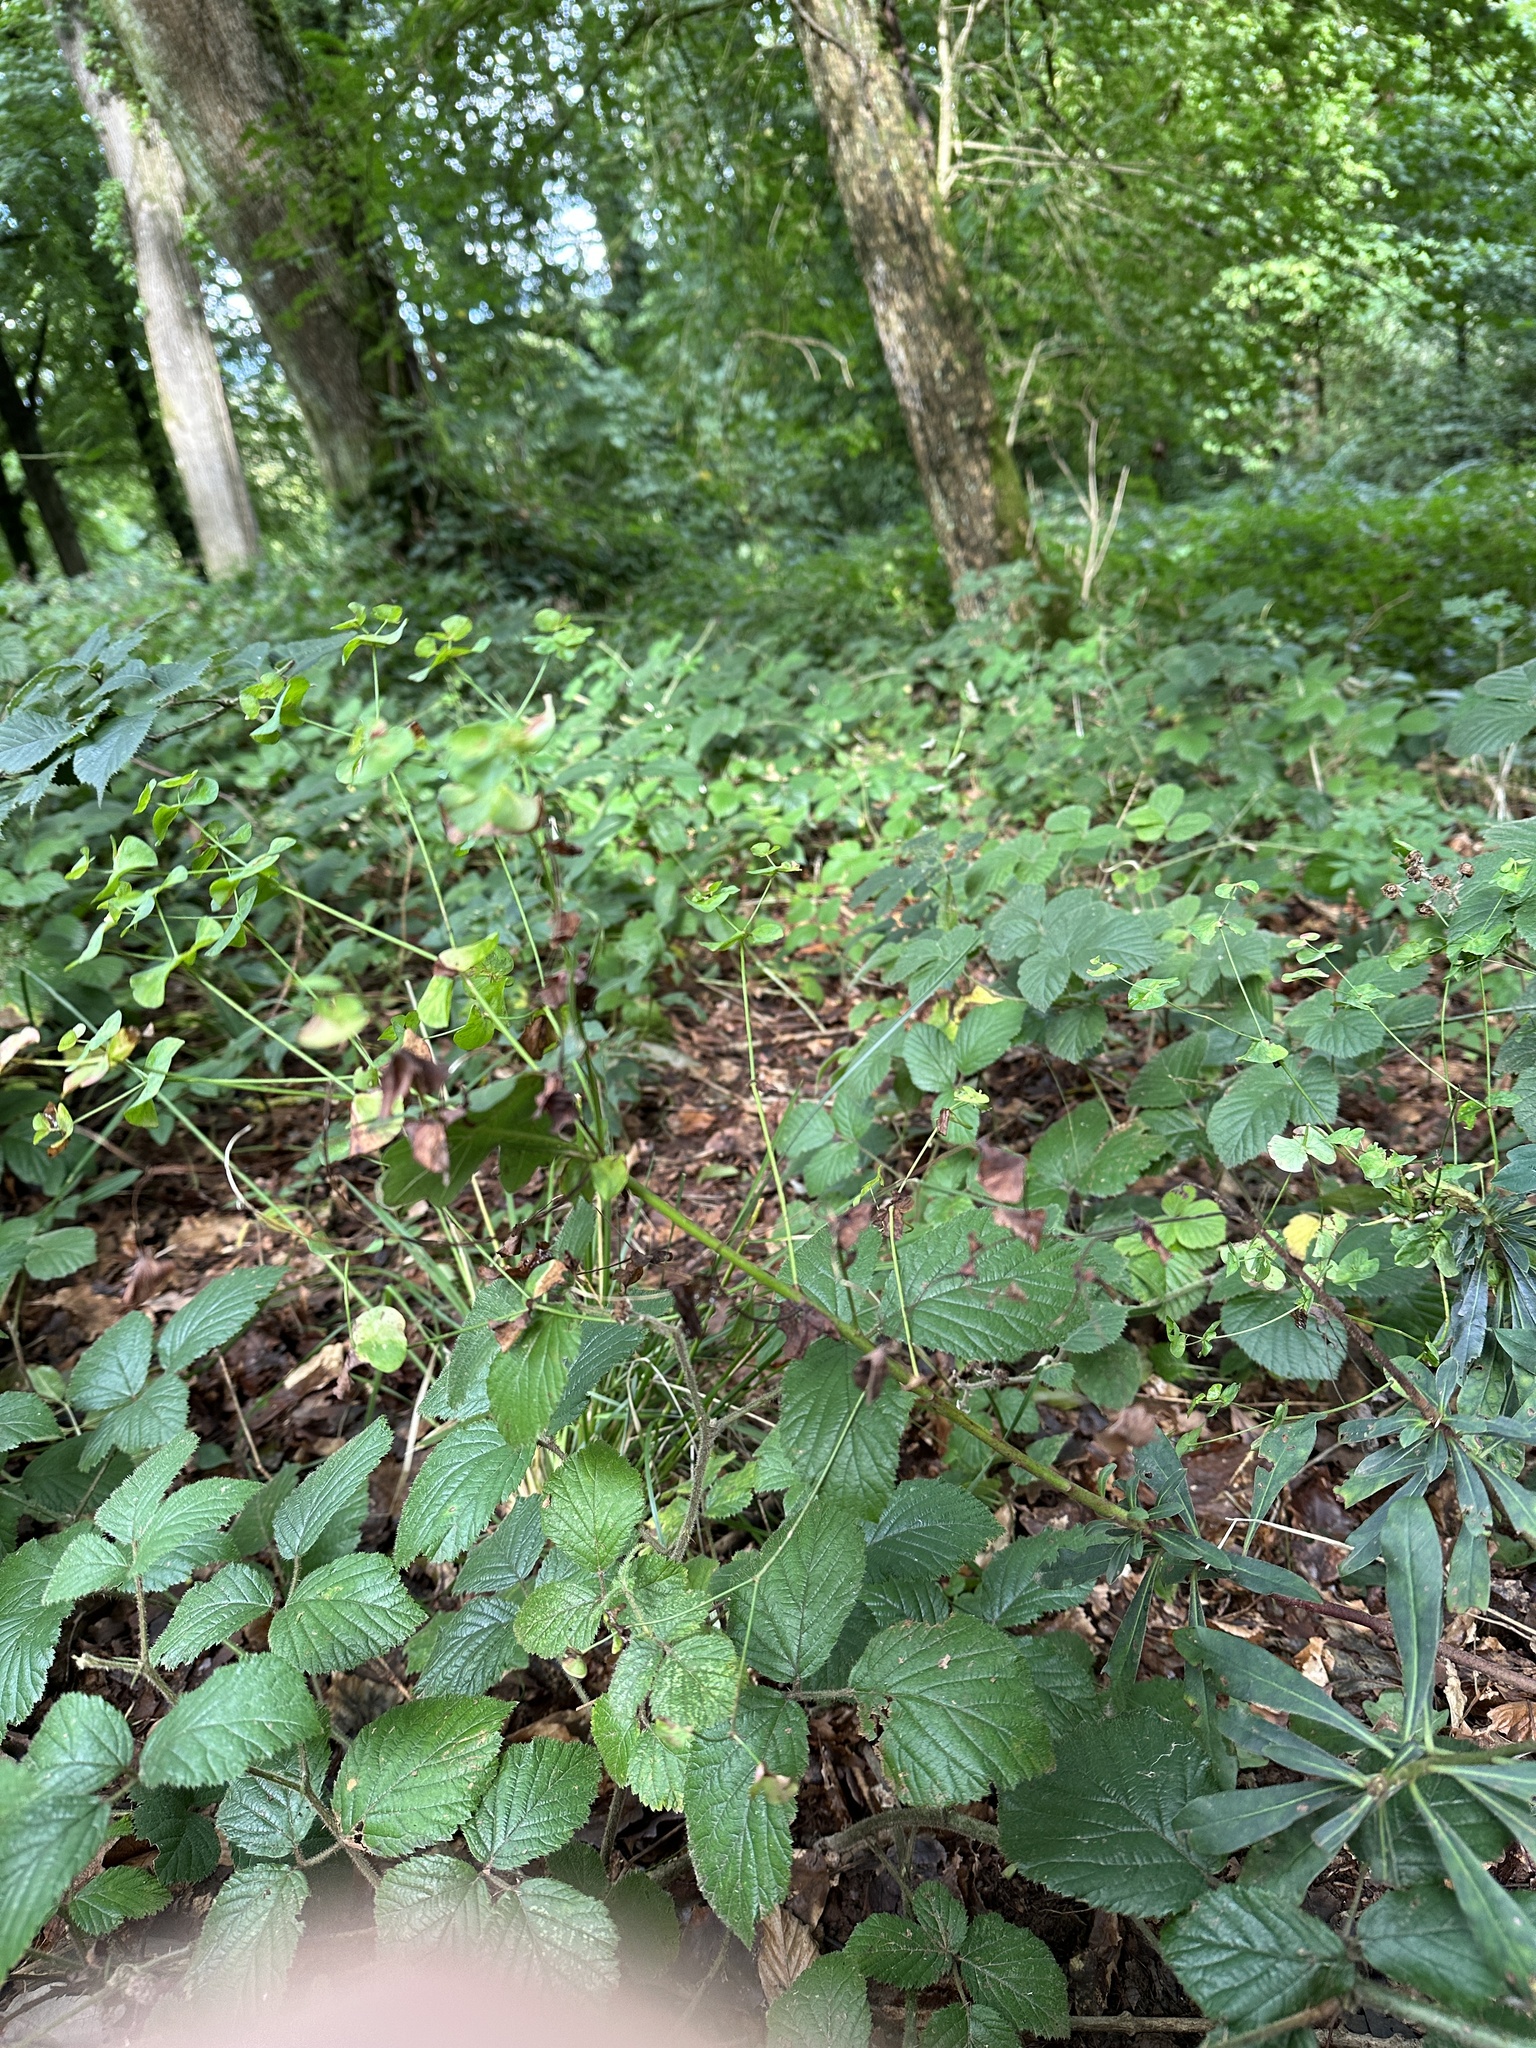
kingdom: Plantae
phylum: Tracheophyta
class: Magnoliopsida
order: Malpighiales
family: Euphorbiaceae
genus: Euphorbia
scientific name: Euphorbia amygdaloides
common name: Wood spurge
